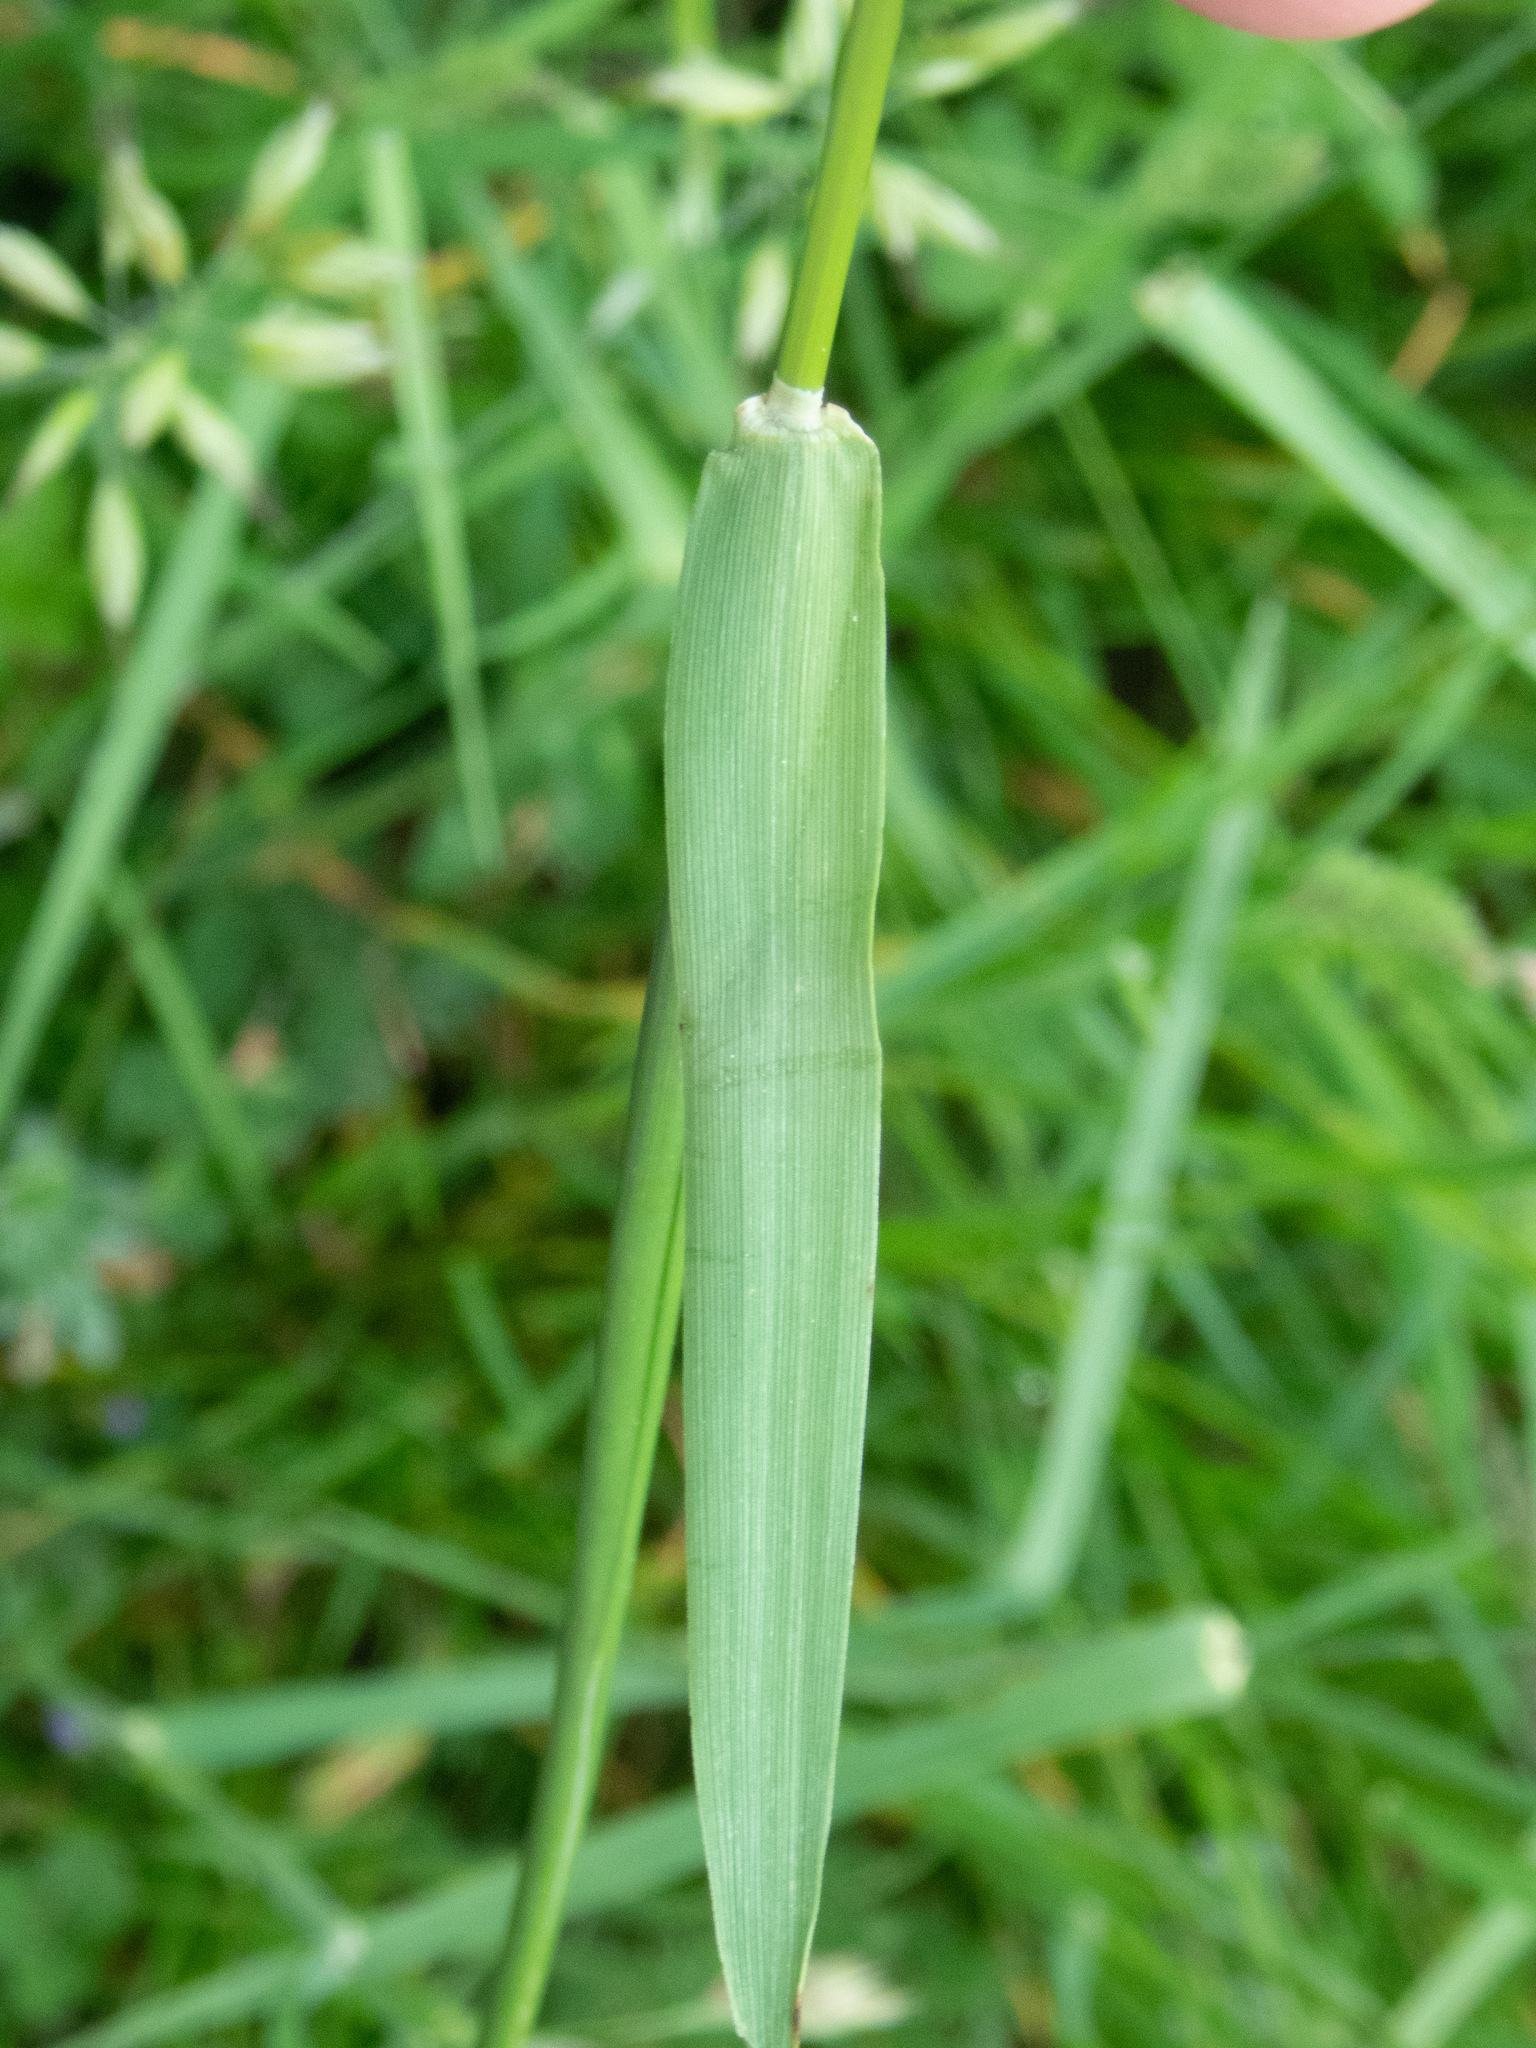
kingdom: Plantae
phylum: Tracheophyta
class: Liliopsida
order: Poales
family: Poaceae
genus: Alopecurus
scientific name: Alopecurus pratensis
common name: Meadow foxtail
